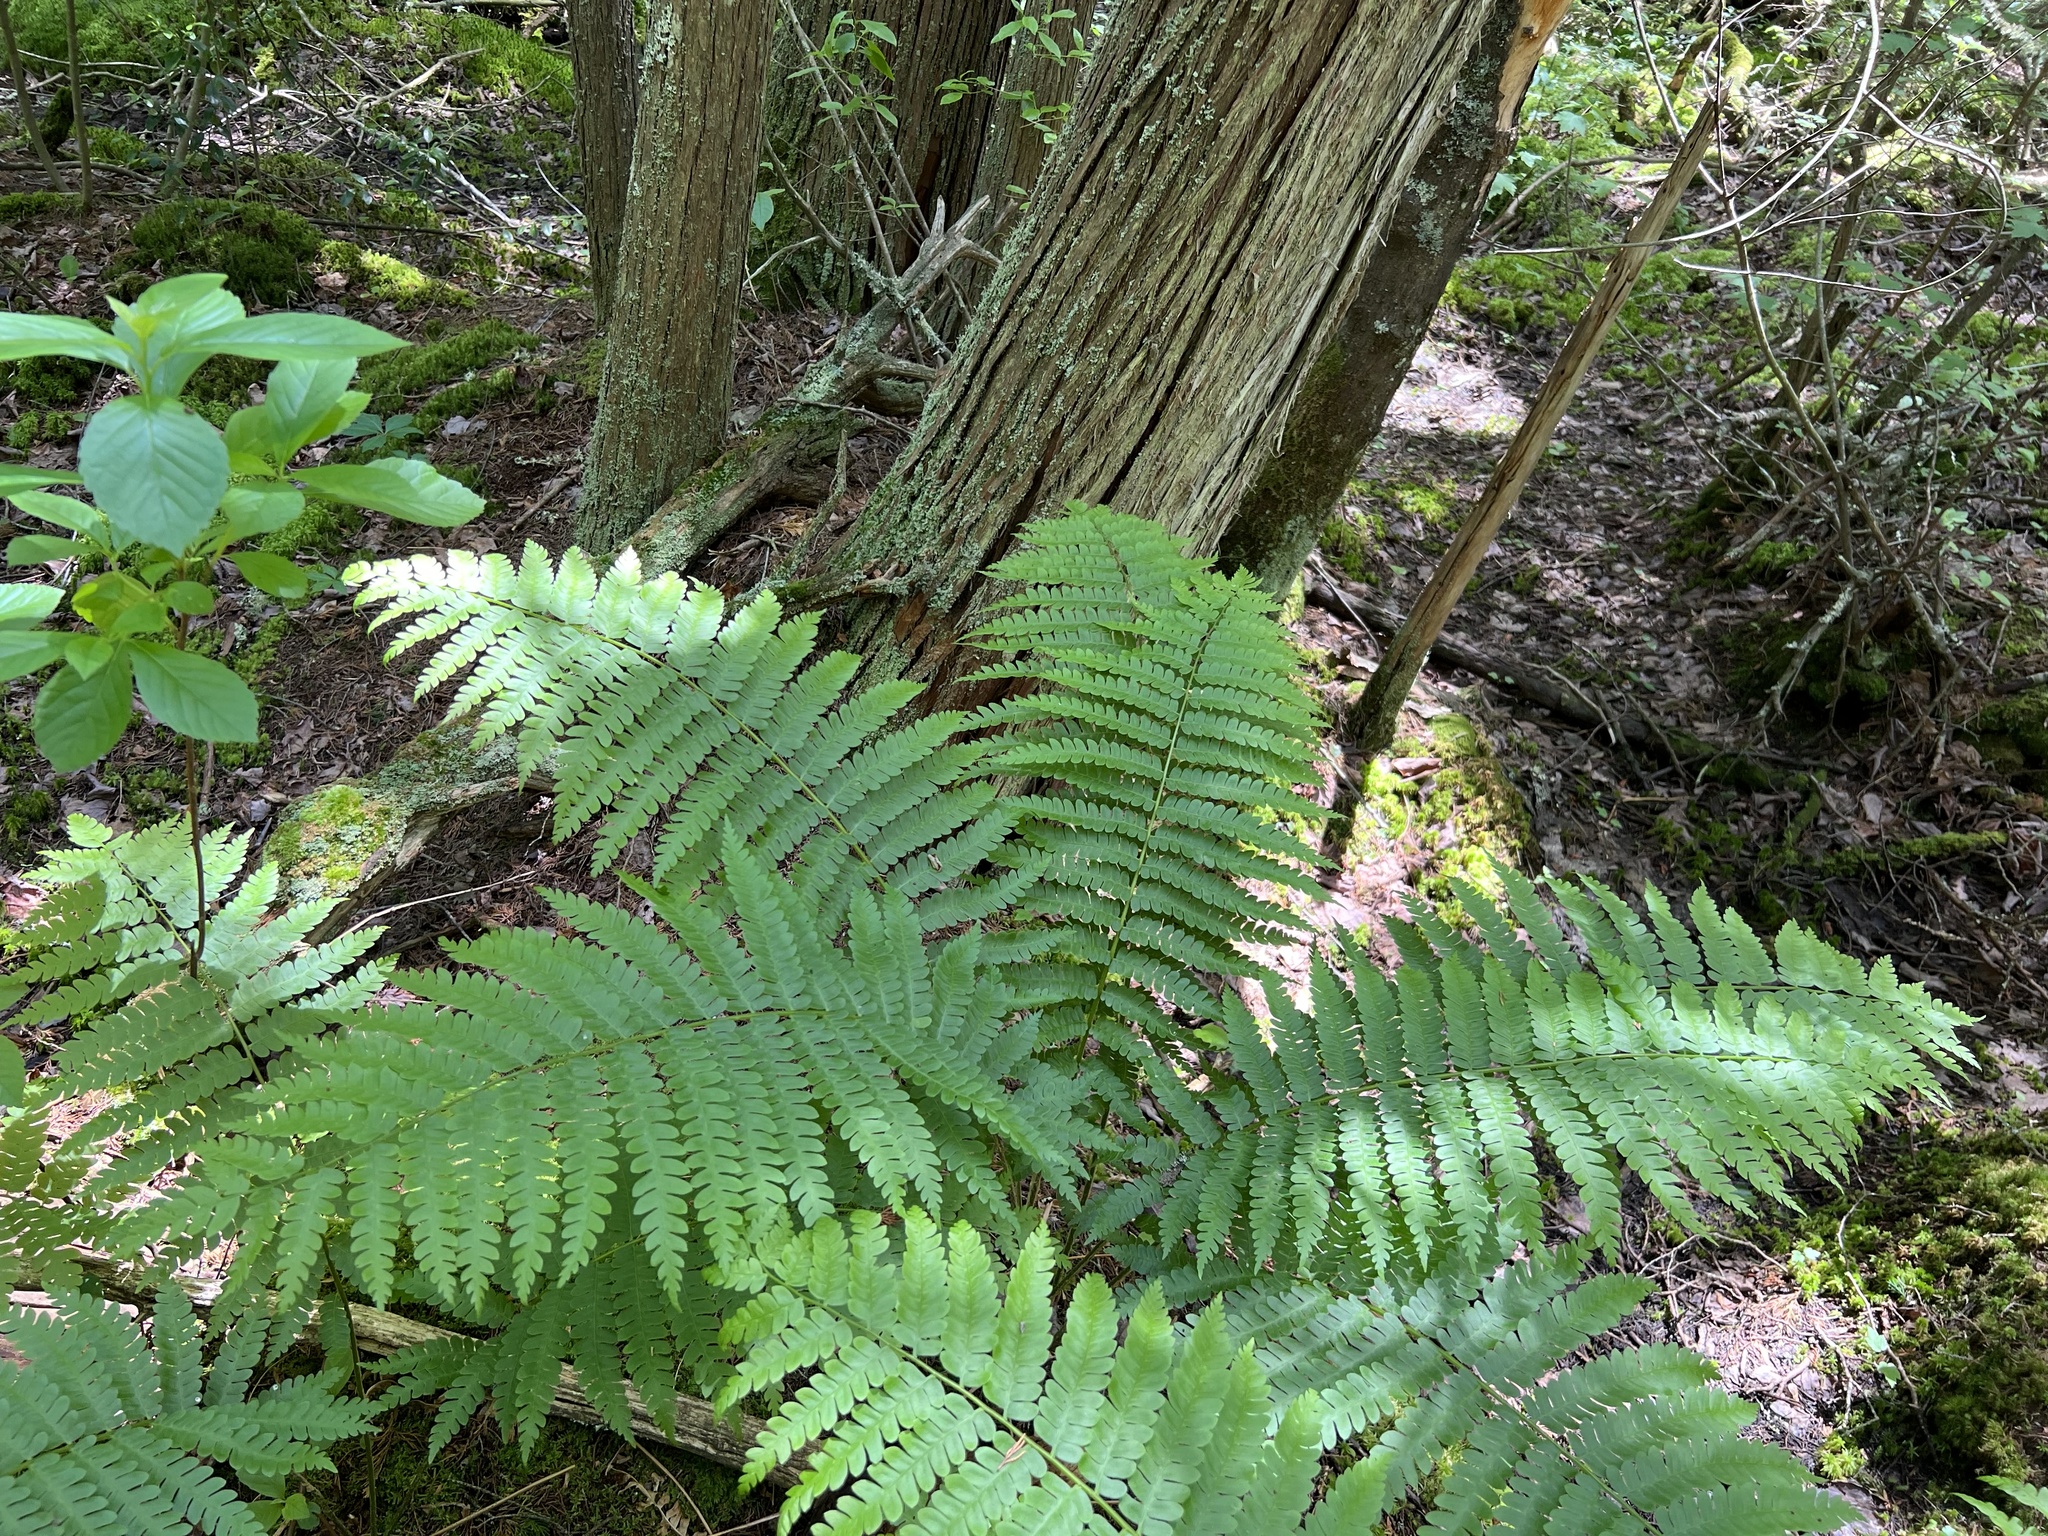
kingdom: Plantae
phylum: Tracheophyta
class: Polypodiopsida
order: Osmundales
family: Osmundaceae
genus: Osmundastrum
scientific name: Osmundastrum cinnamomeum
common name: Cinnamon fern
